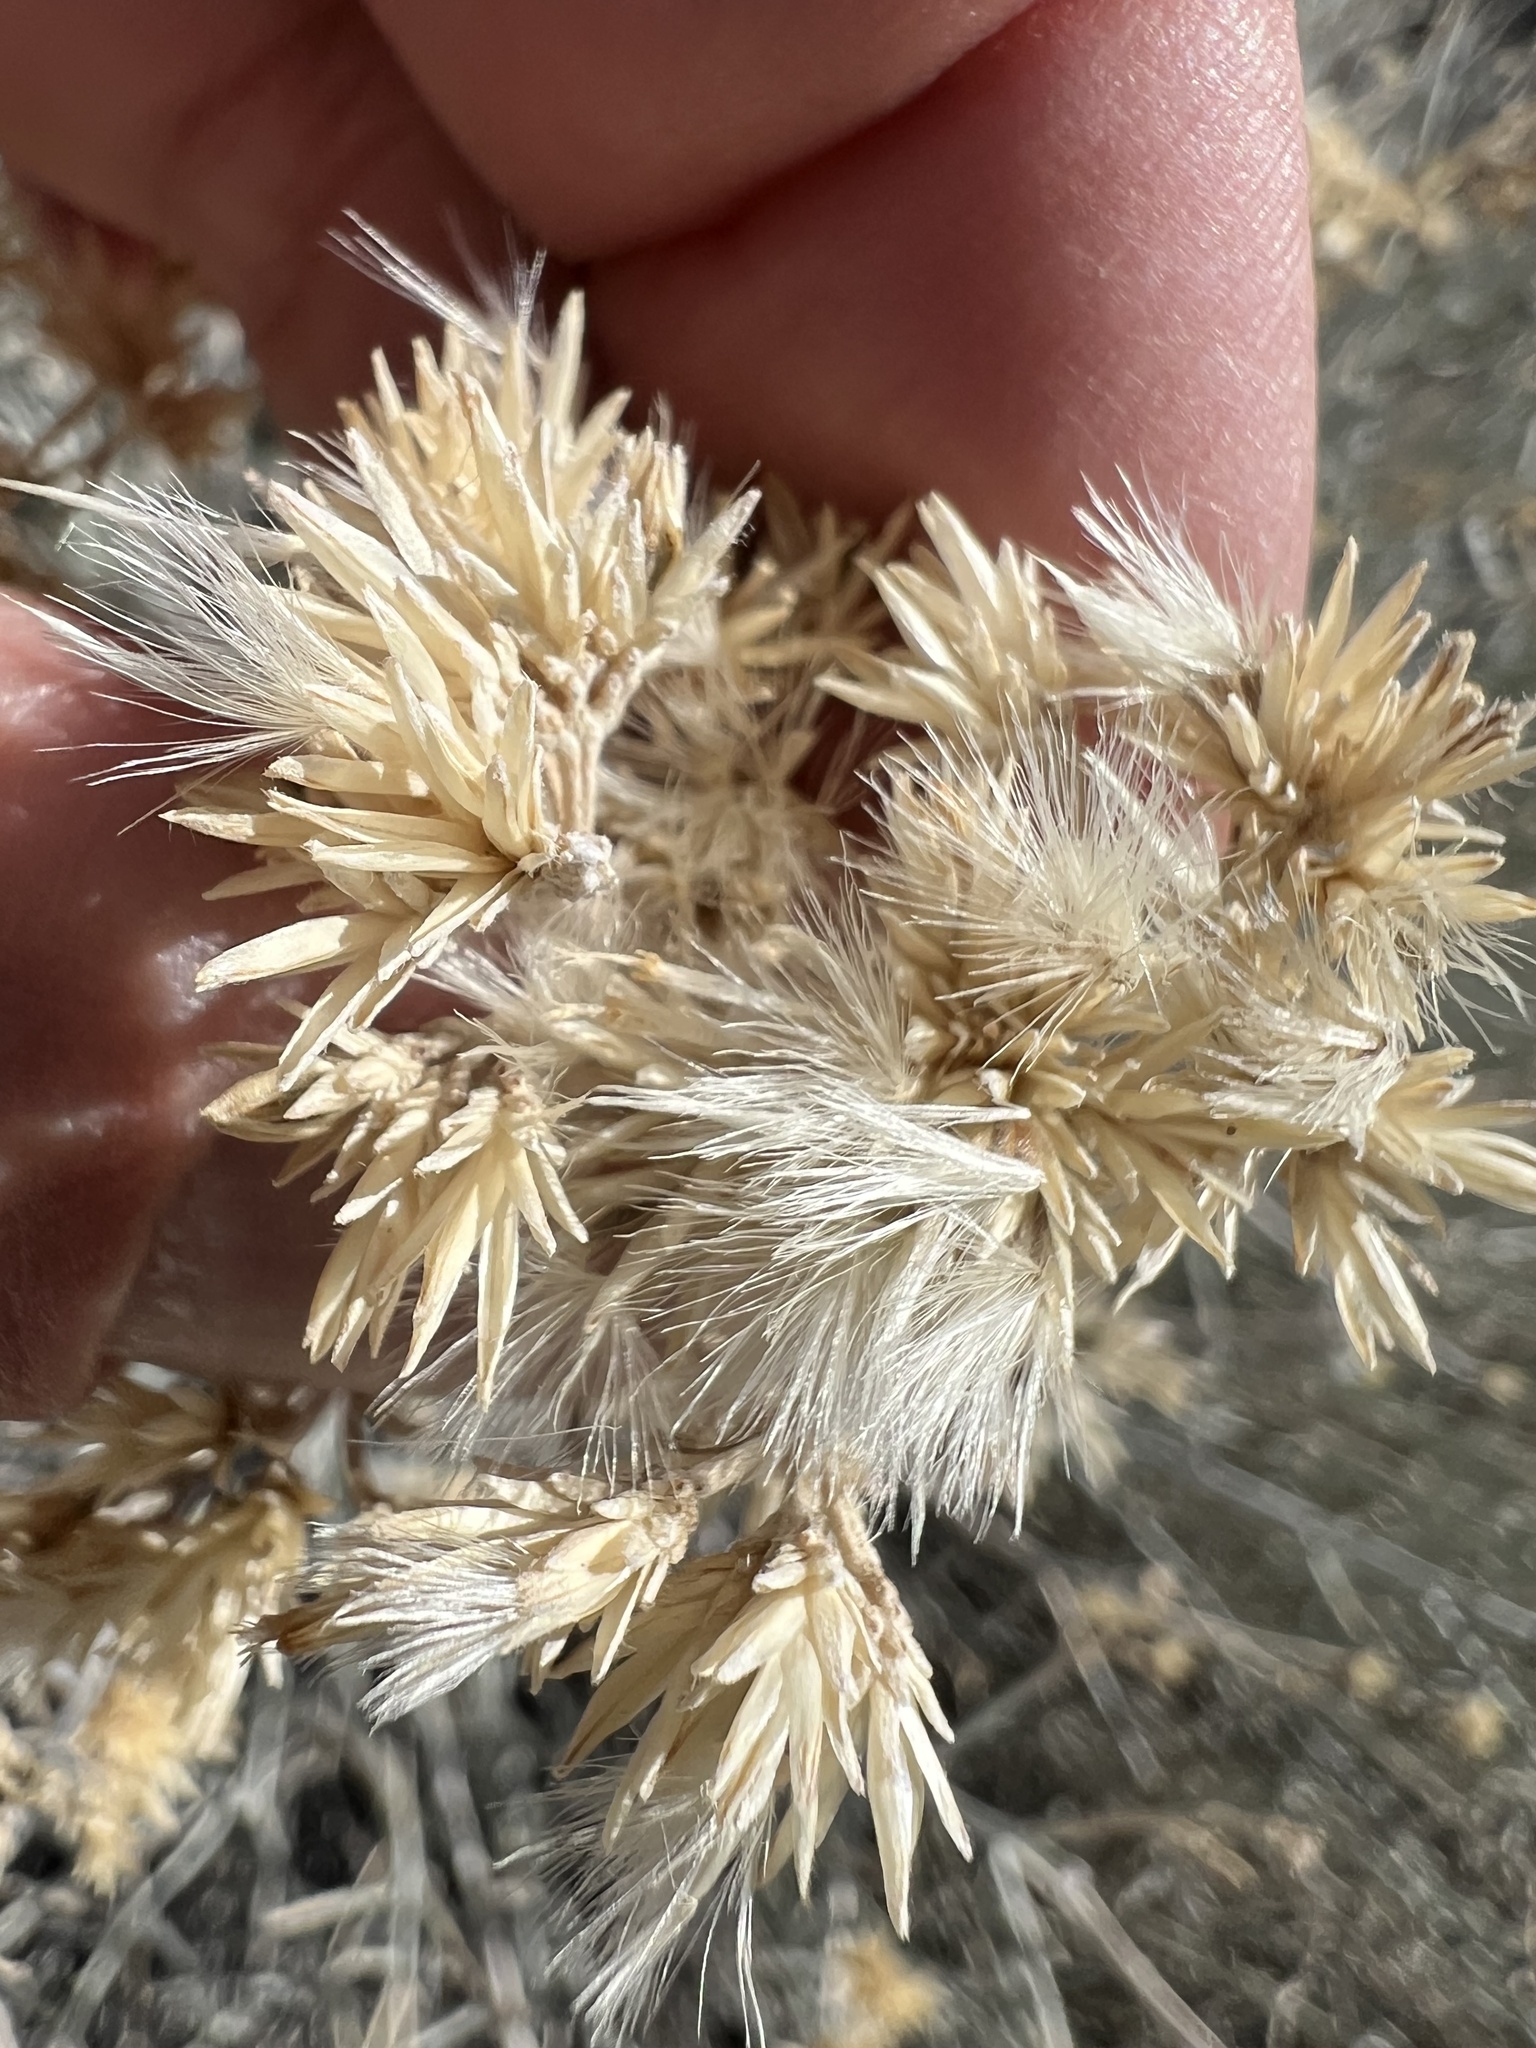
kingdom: Plantae
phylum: Tracheophyta
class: Magnoliopsida
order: Asterales
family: Asteraceae
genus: Ericameria
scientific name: Ericameria nauseosa
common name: Rubber rabbitbrush
